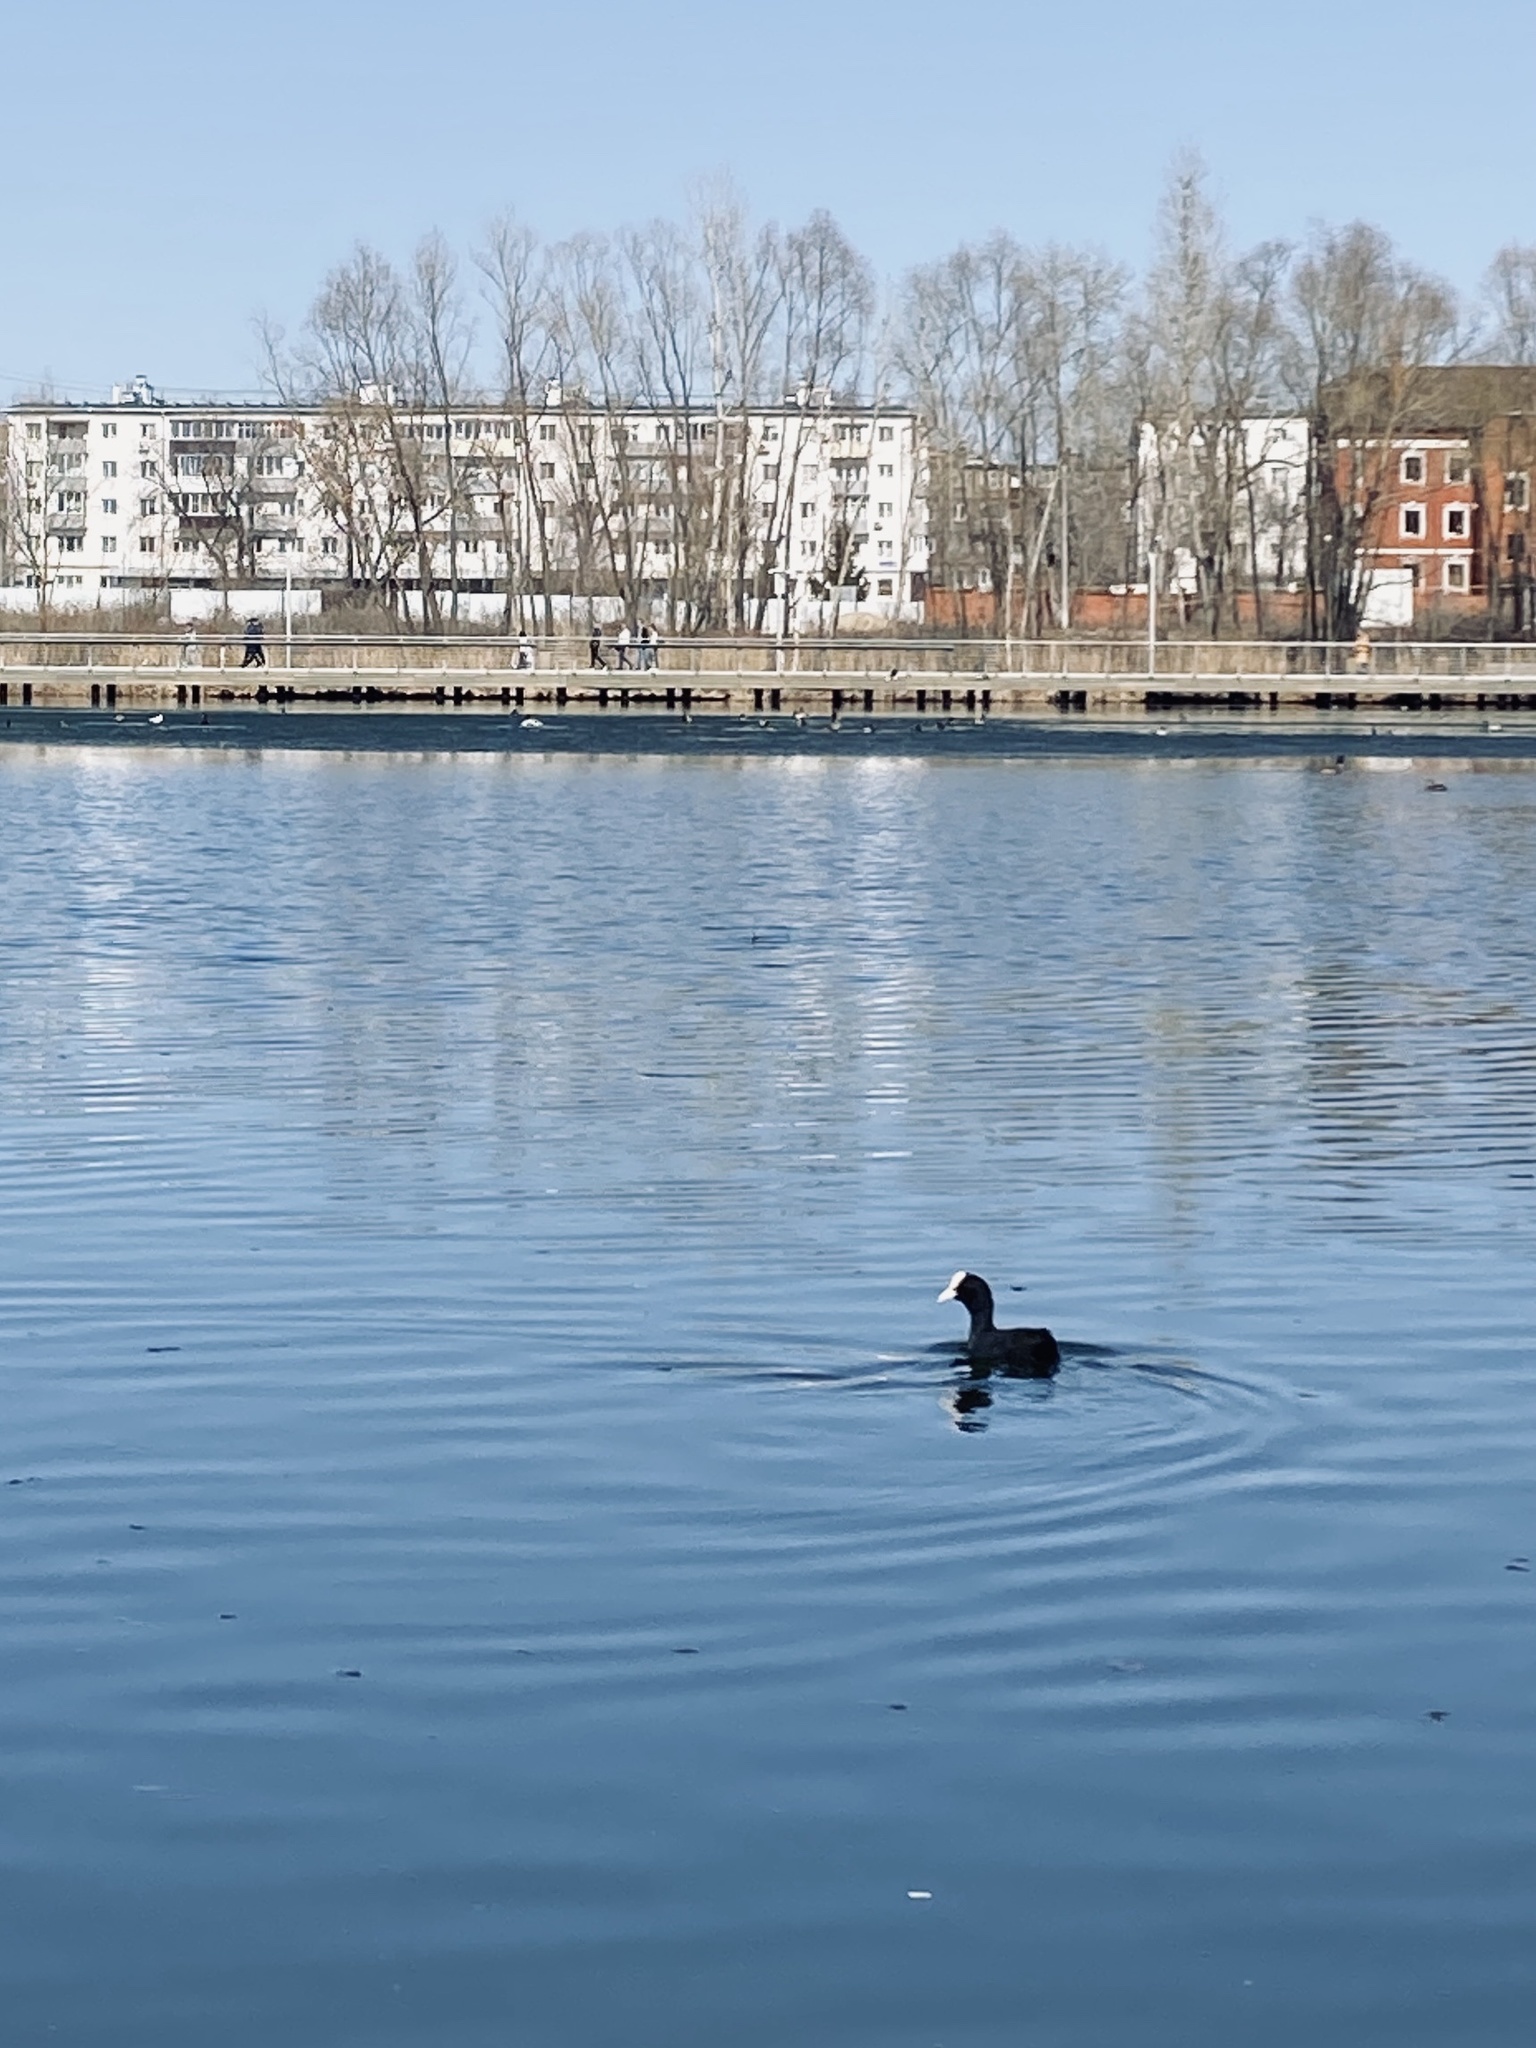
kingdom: Animalia
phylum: Chordata
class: Aves
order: Gruiformes
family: Rallidae
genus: Fulica
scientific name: Fulica atra
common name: Eurasian coot
